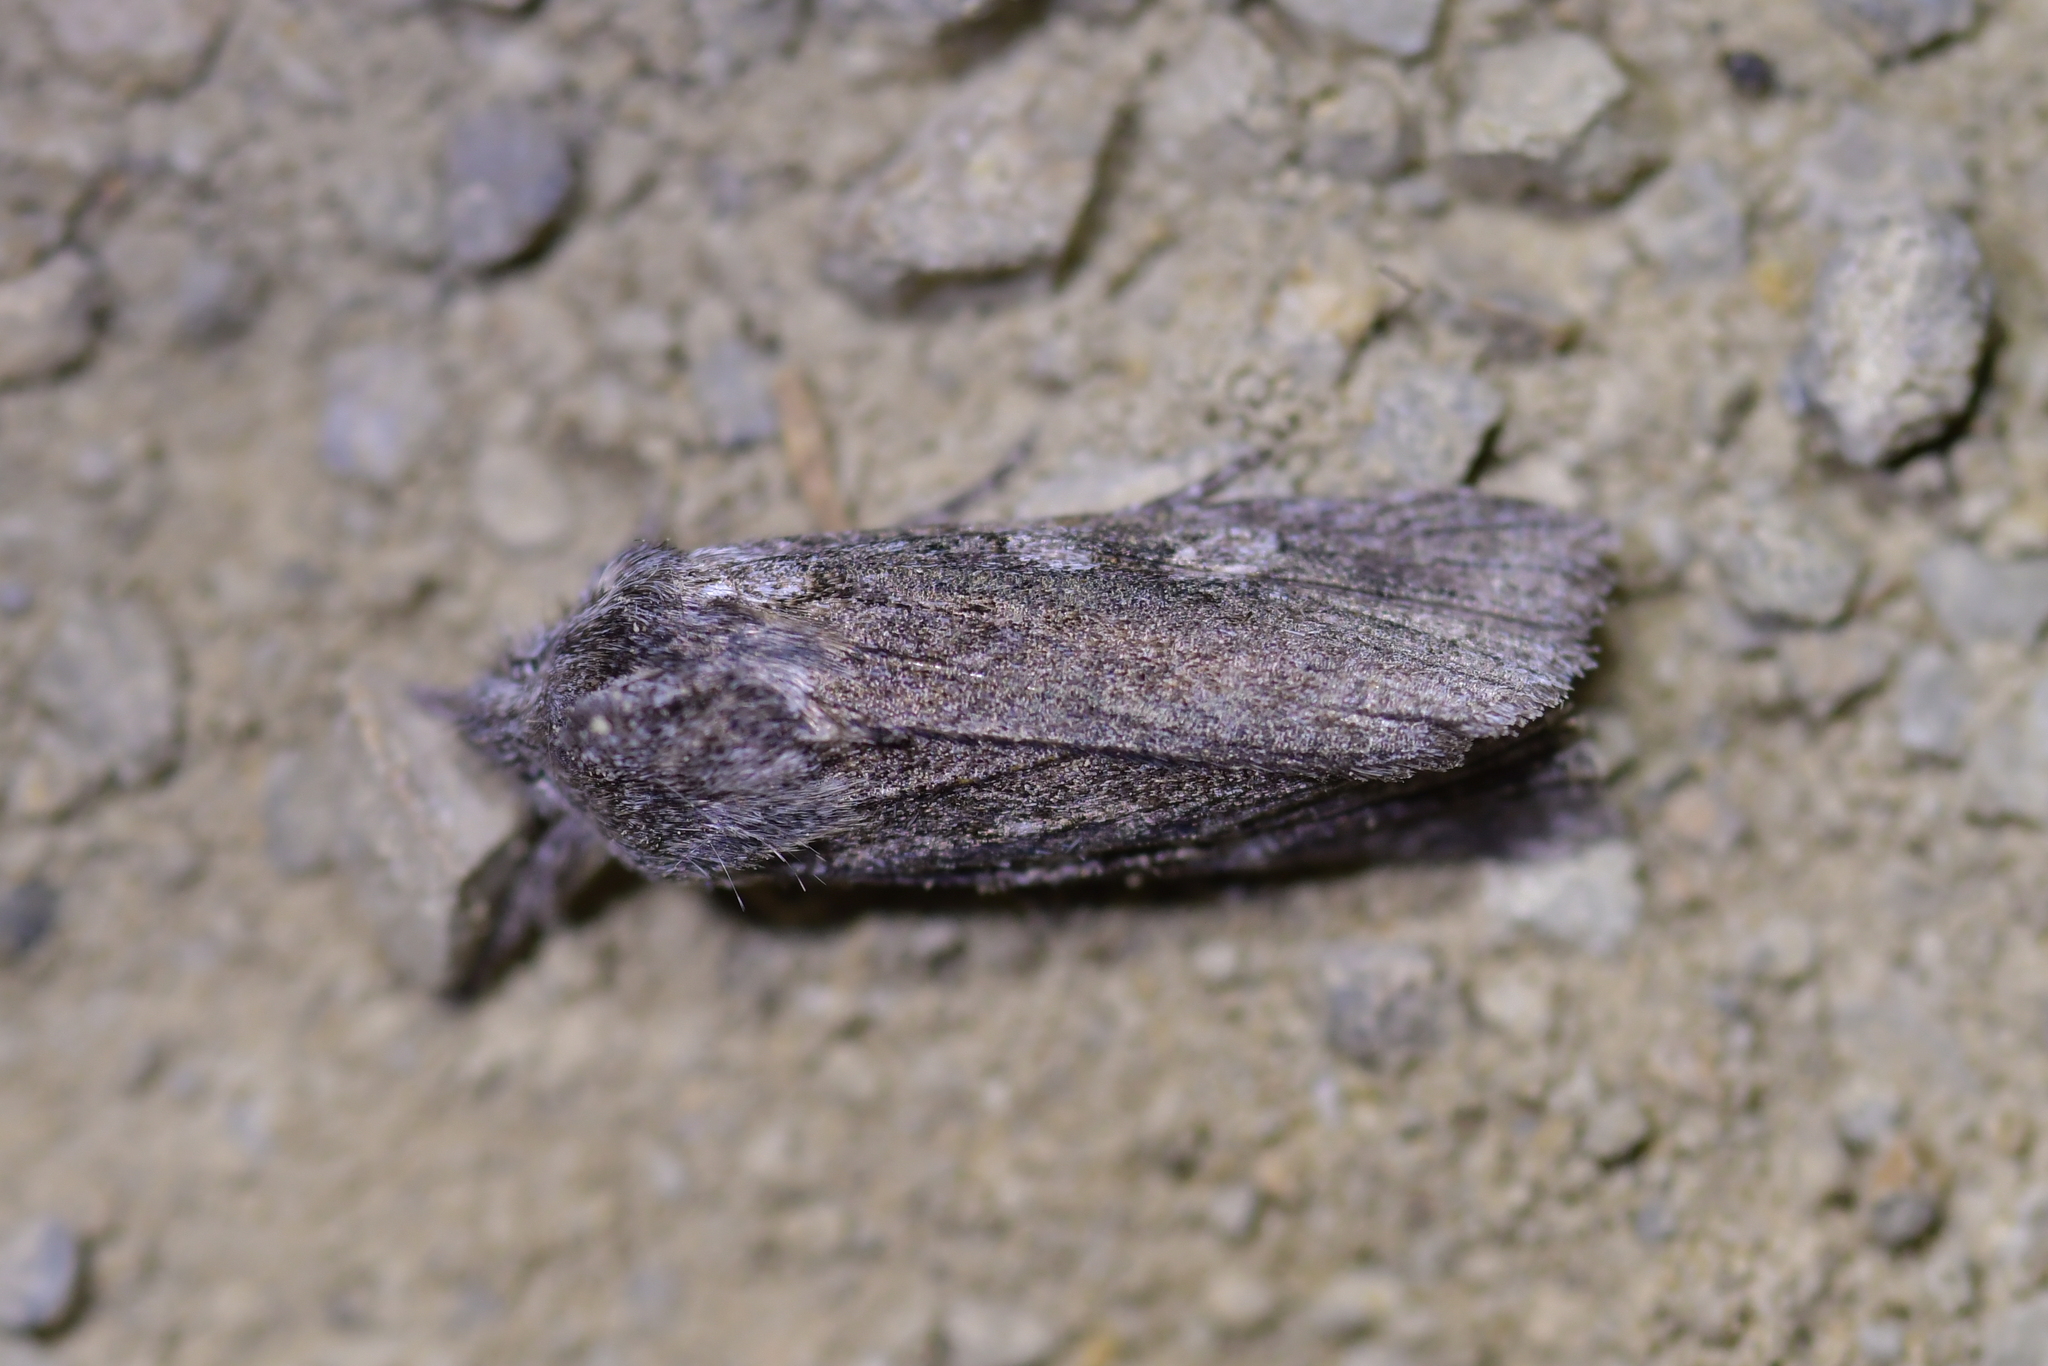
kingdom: Animalia
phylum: Arthropoda
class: Insecta
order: Lepidoptera
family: Noctuidae
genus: Physetica
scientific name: Physetica phricias
